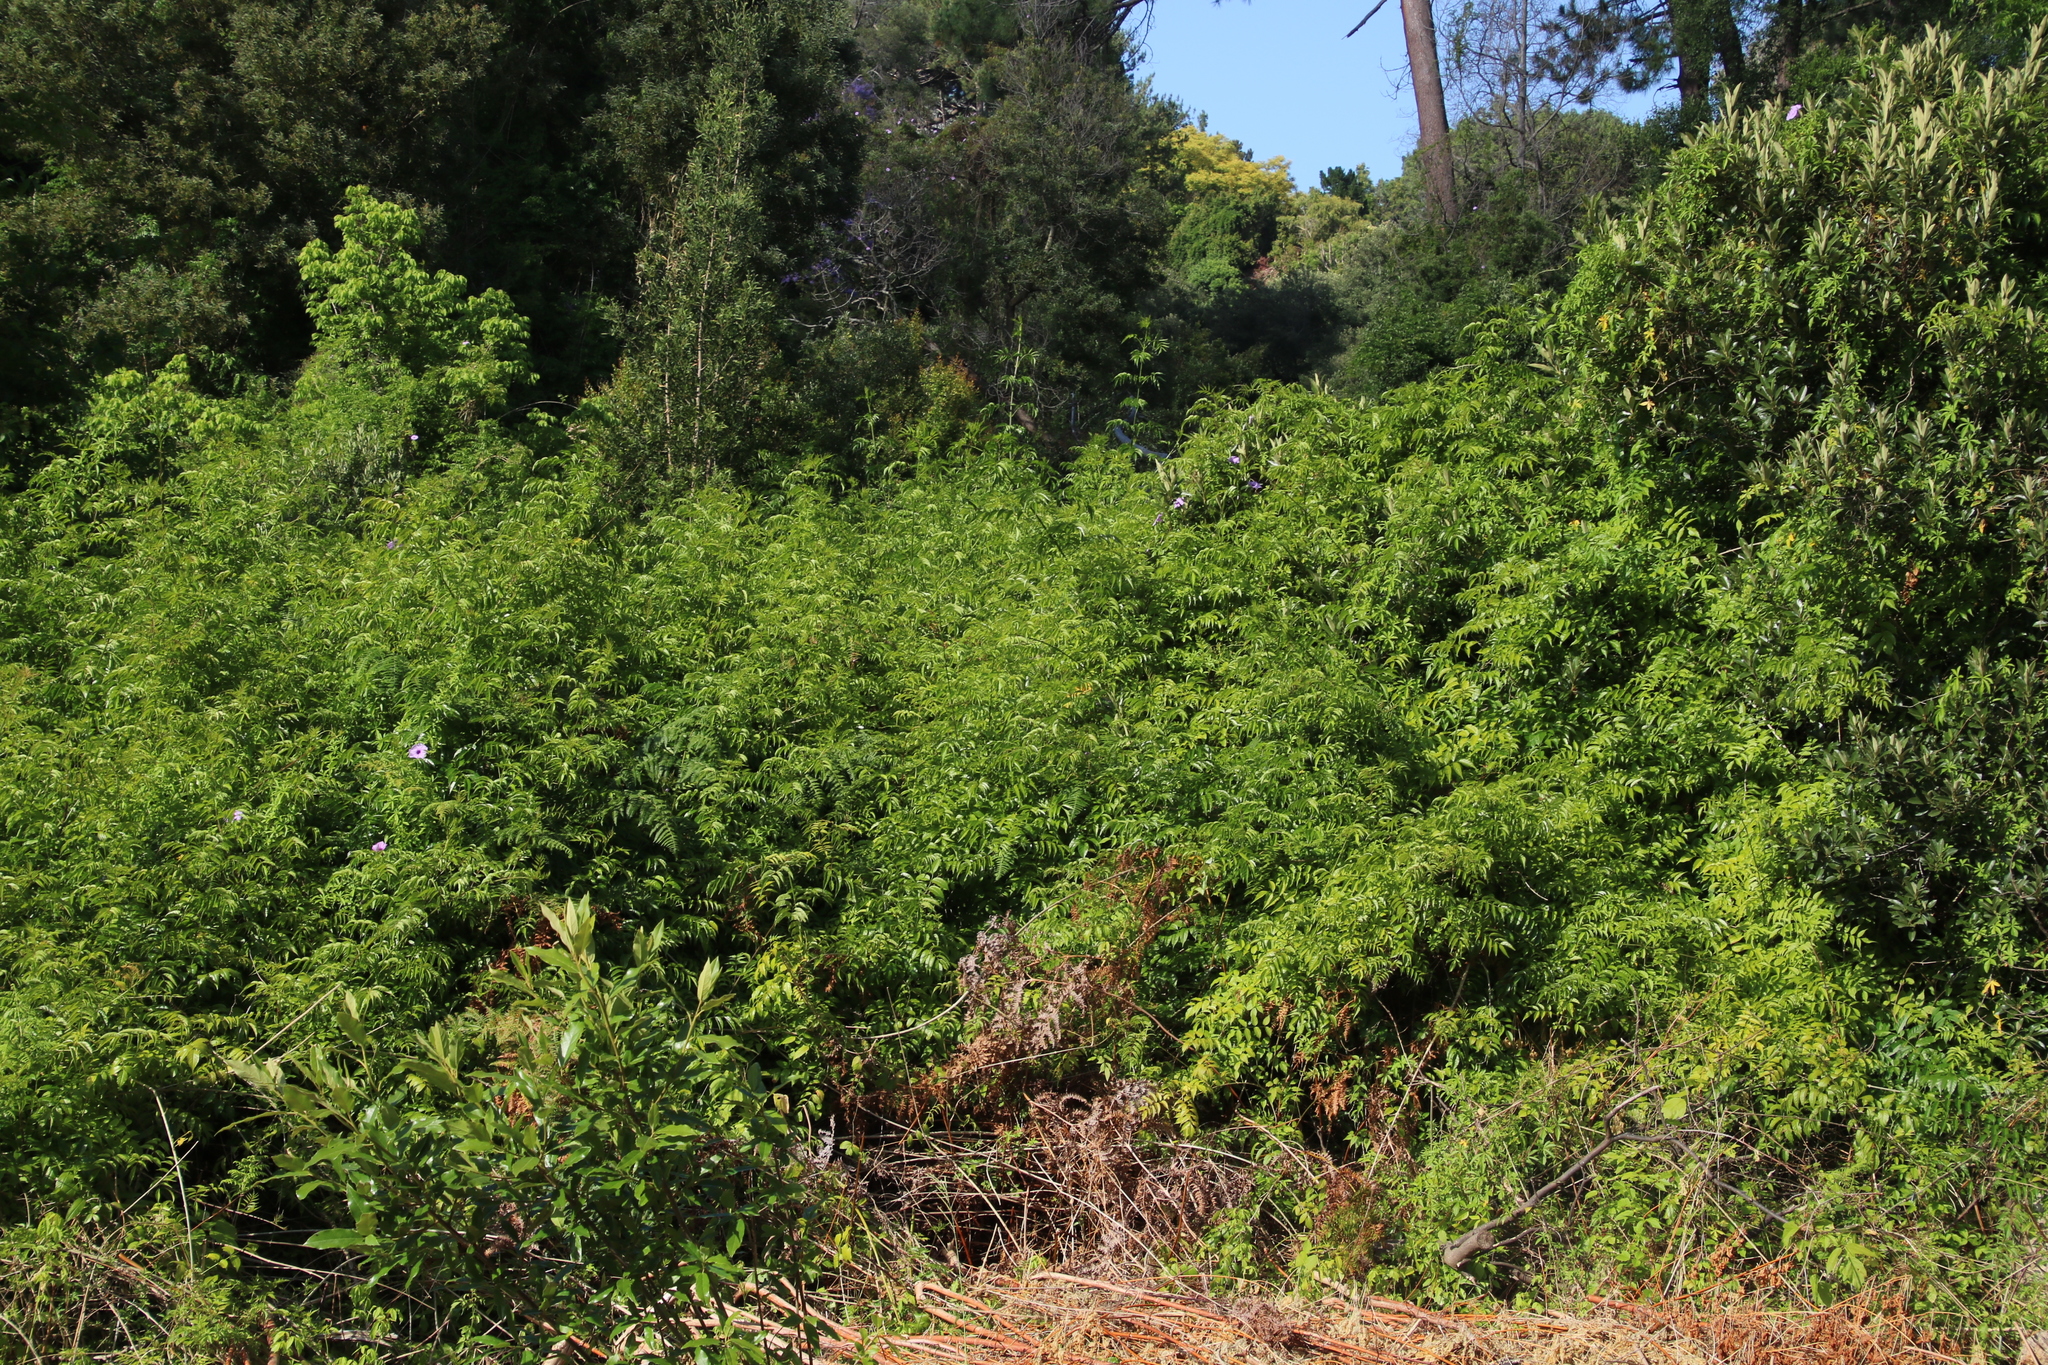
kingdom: Plantae
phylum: Tracheophyta
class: Magnoliopsida
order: Lamiales
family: Bignoniaceae
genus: Podranea
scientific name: Podranea ricasoliana
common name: Zimbabwe creeper
